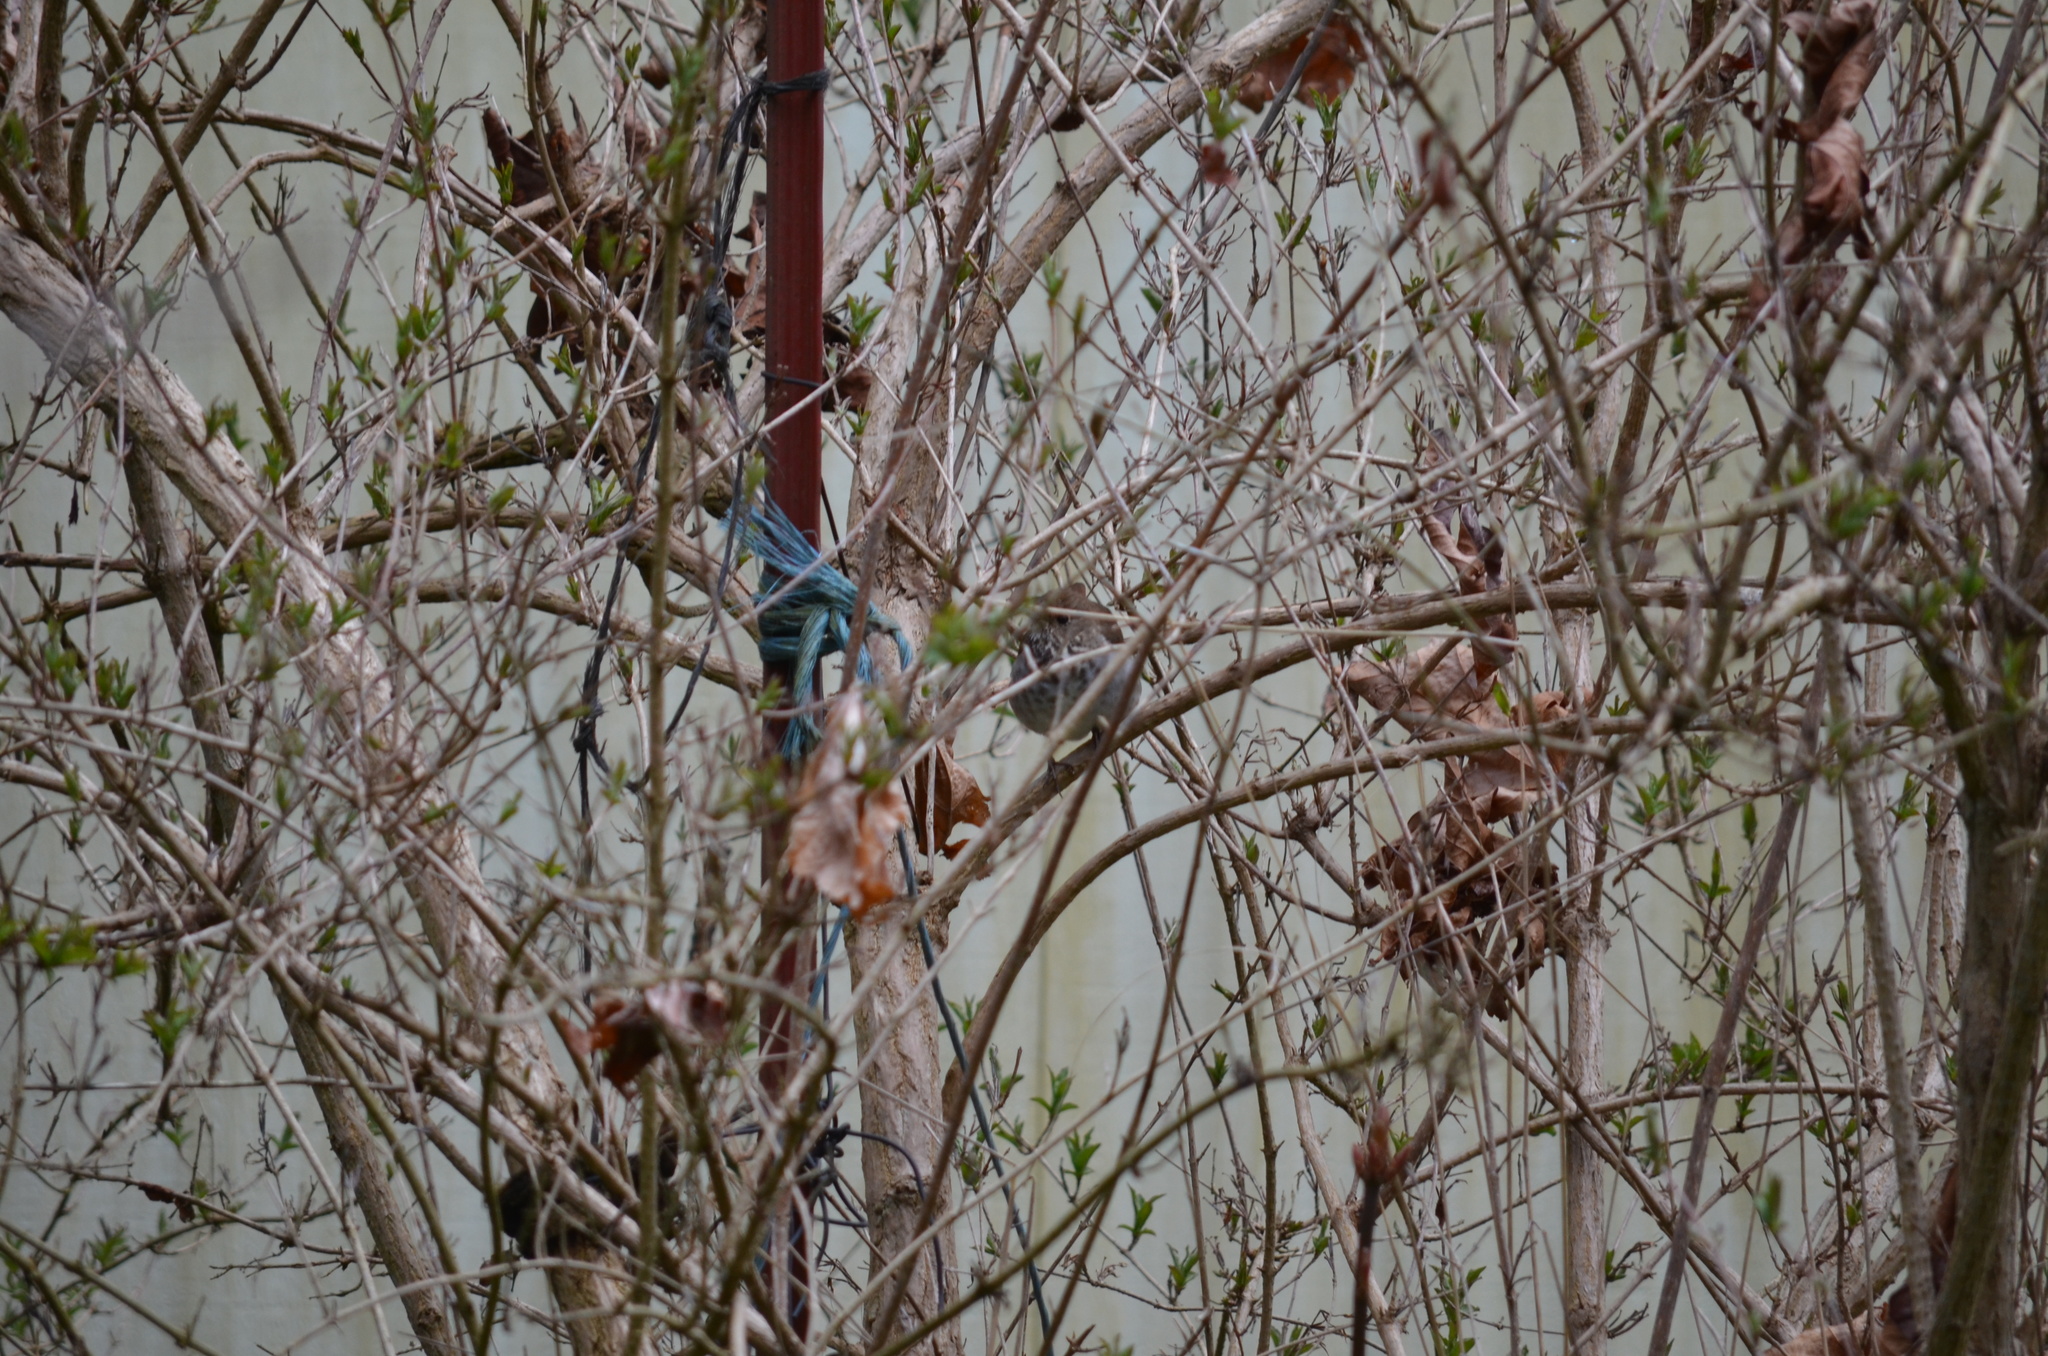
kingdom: Animalia
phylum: Chordata
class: Aves
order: Passeriformes
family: Turdidae
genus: Catharus
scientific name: Catharus guttatus
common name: Hermit thrush
